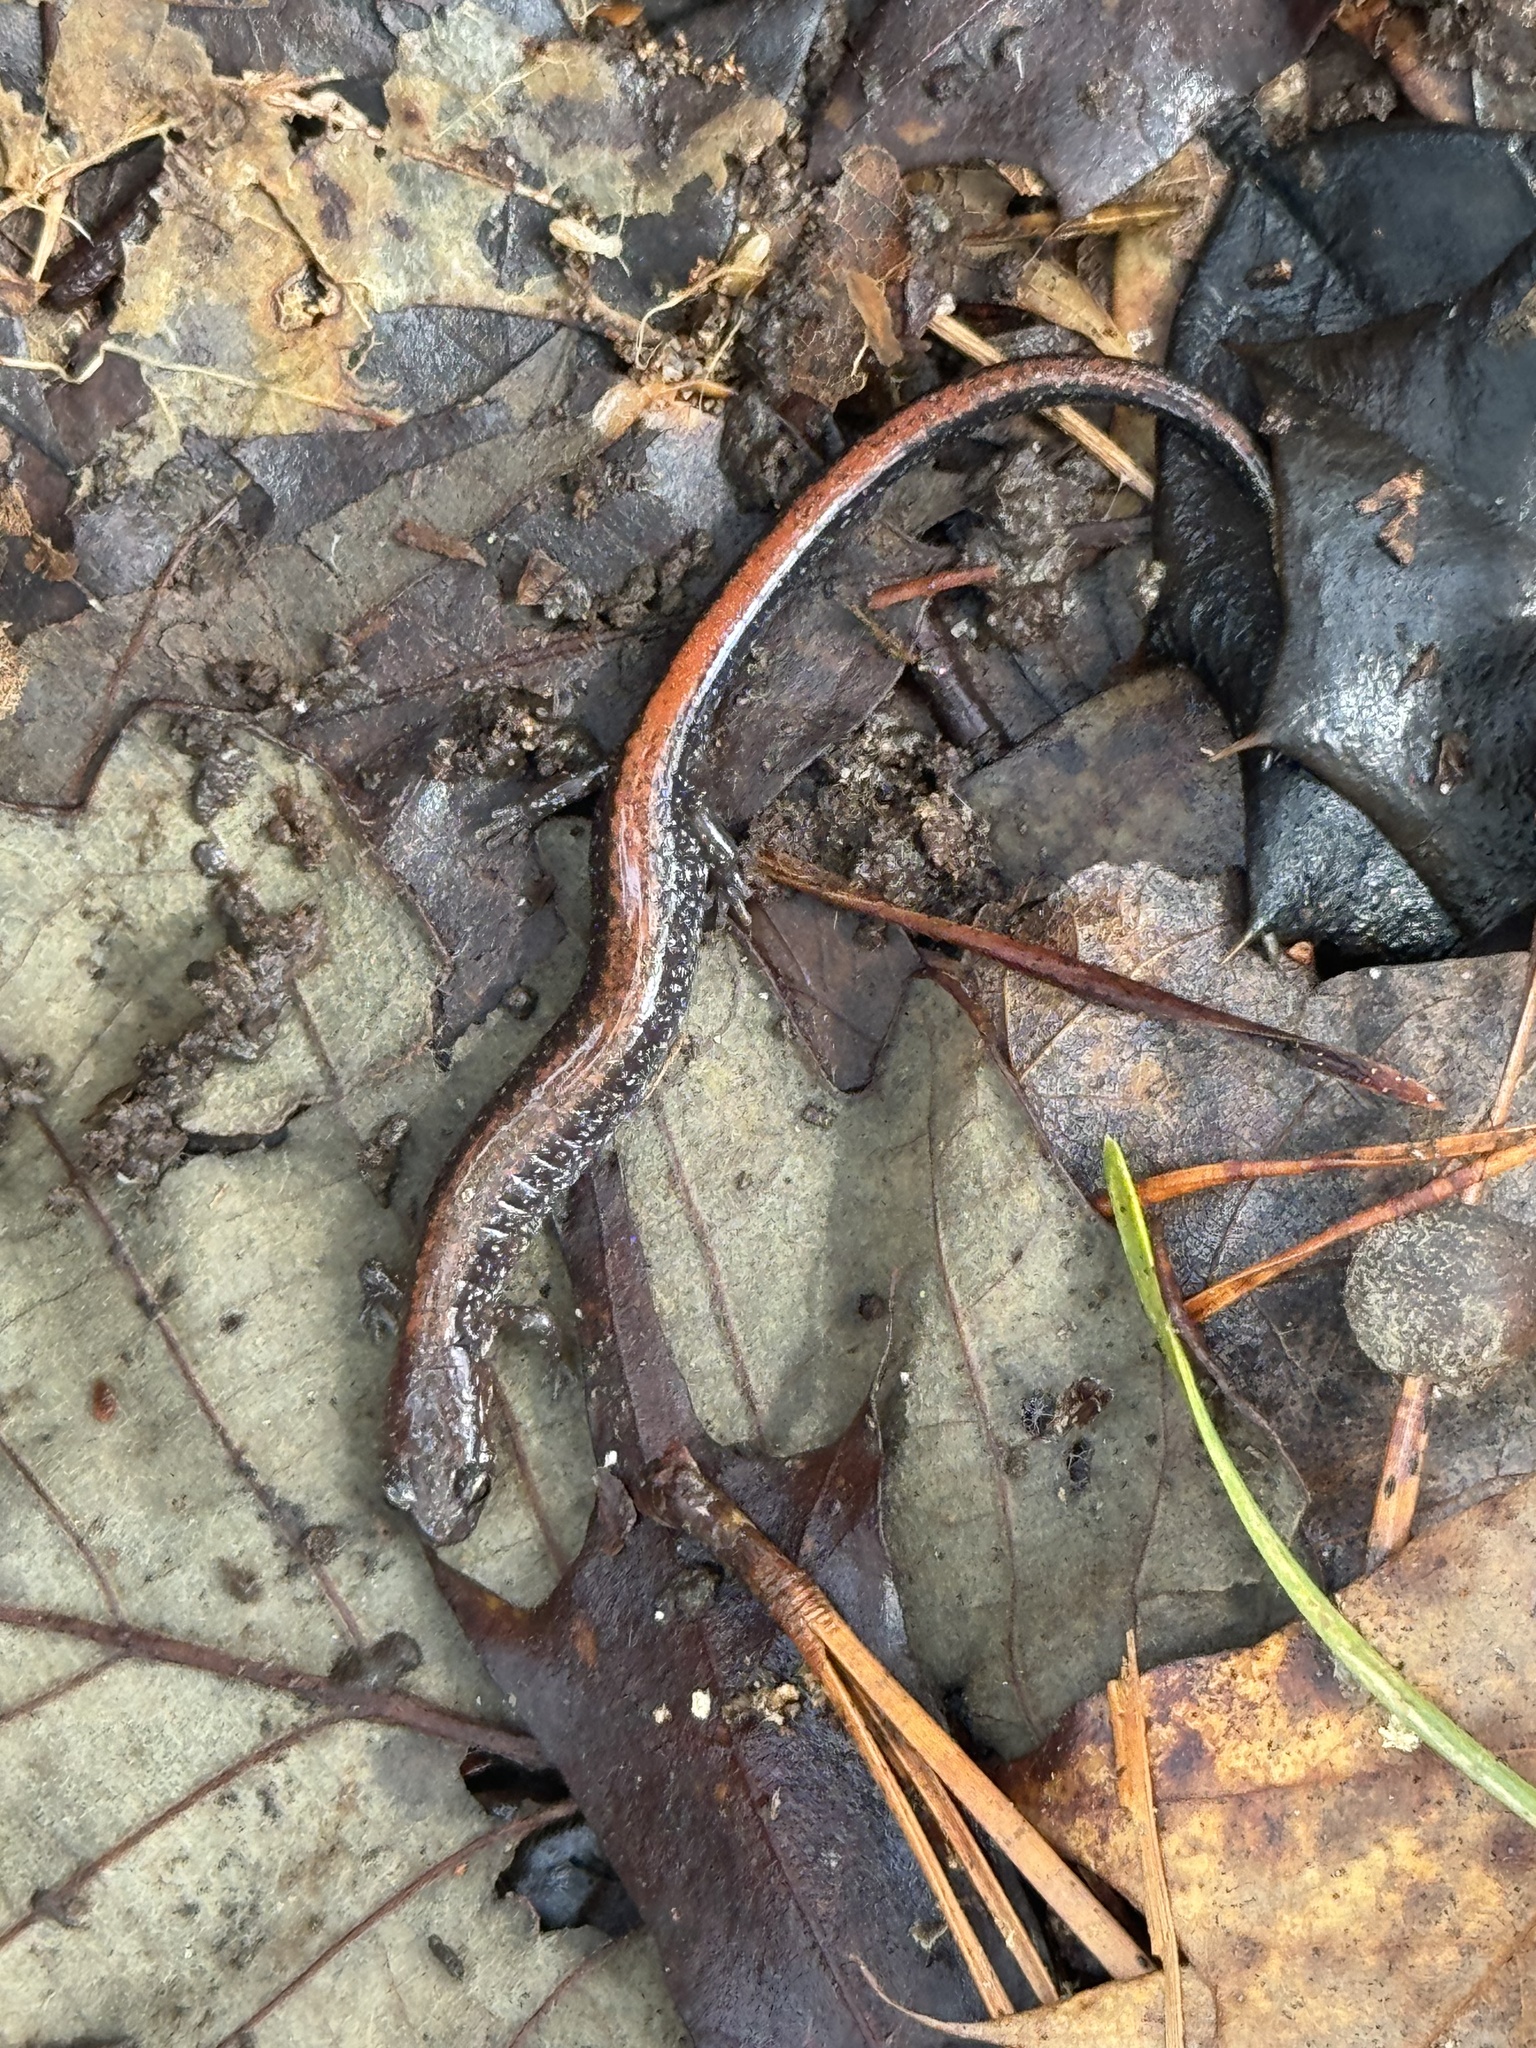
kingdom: Animalia
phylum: Chordata
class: Amphibia
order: Caudata
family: Plethodontidae
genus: Plethodon
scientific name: Plethodon cinereus
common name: Redback salamander
